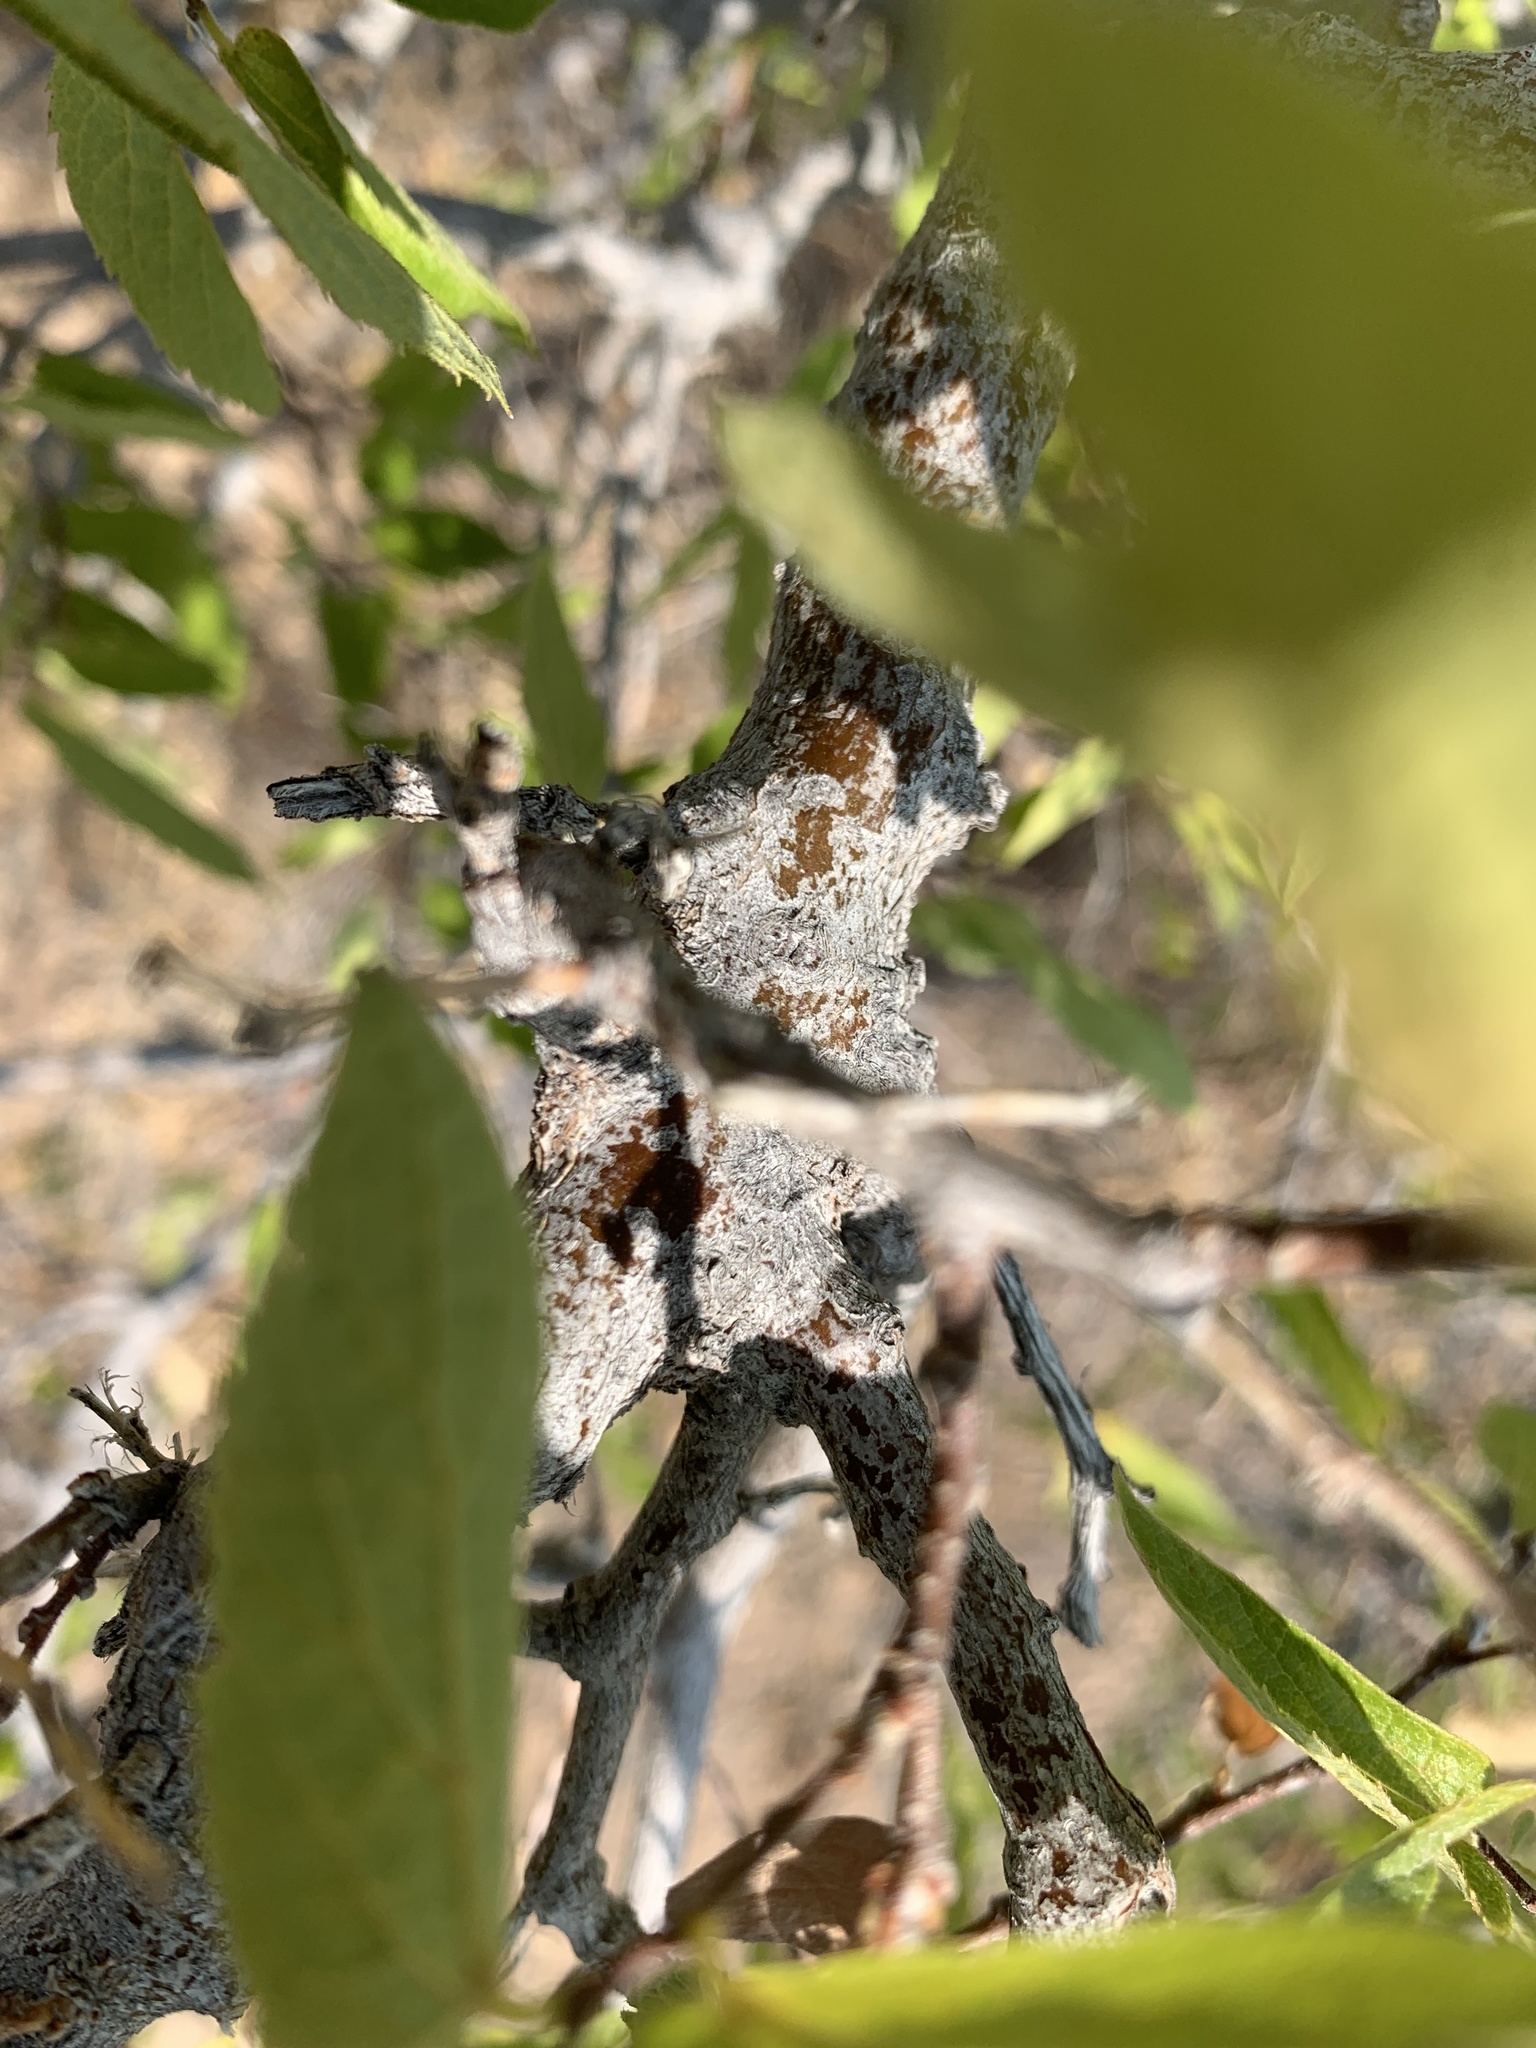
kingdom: Plantae
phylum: Tracheophyta
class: Magnoliopsida
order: Rosales
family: Cannabaceae
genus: Celtis
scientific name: Celtis reticulata
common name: Netleaf hackberry
